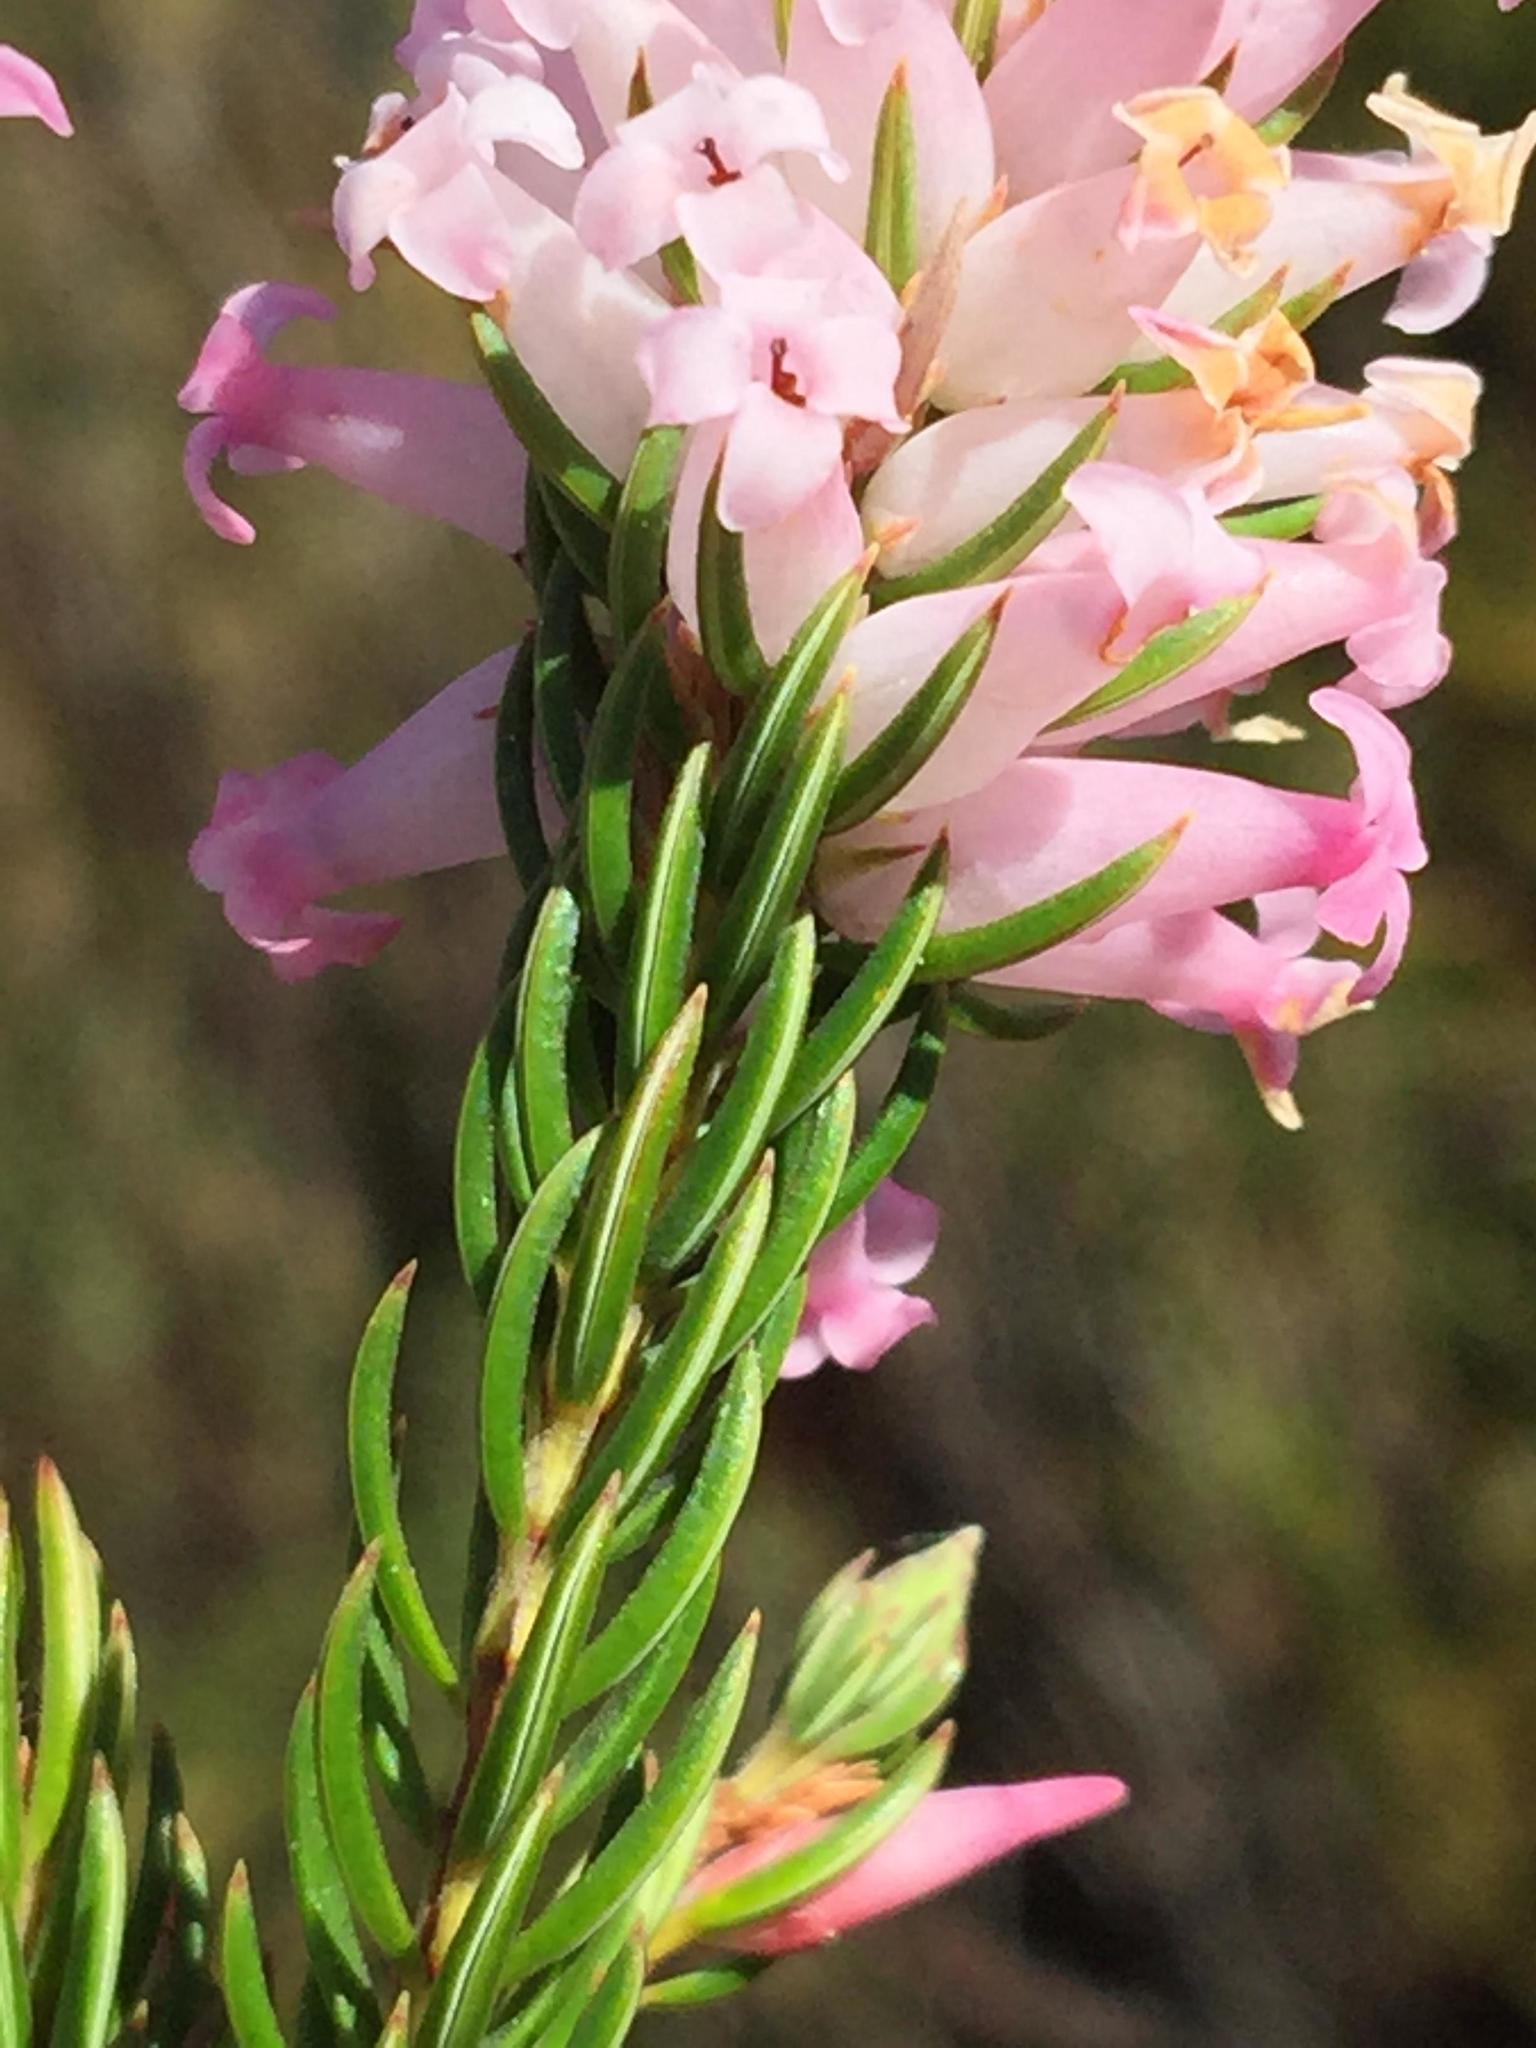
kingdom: Plantae
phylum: Tracheophyta
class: Magnoliopsida
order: Ericales
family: Ericaceae
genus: Erica
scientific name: Erica georgica
